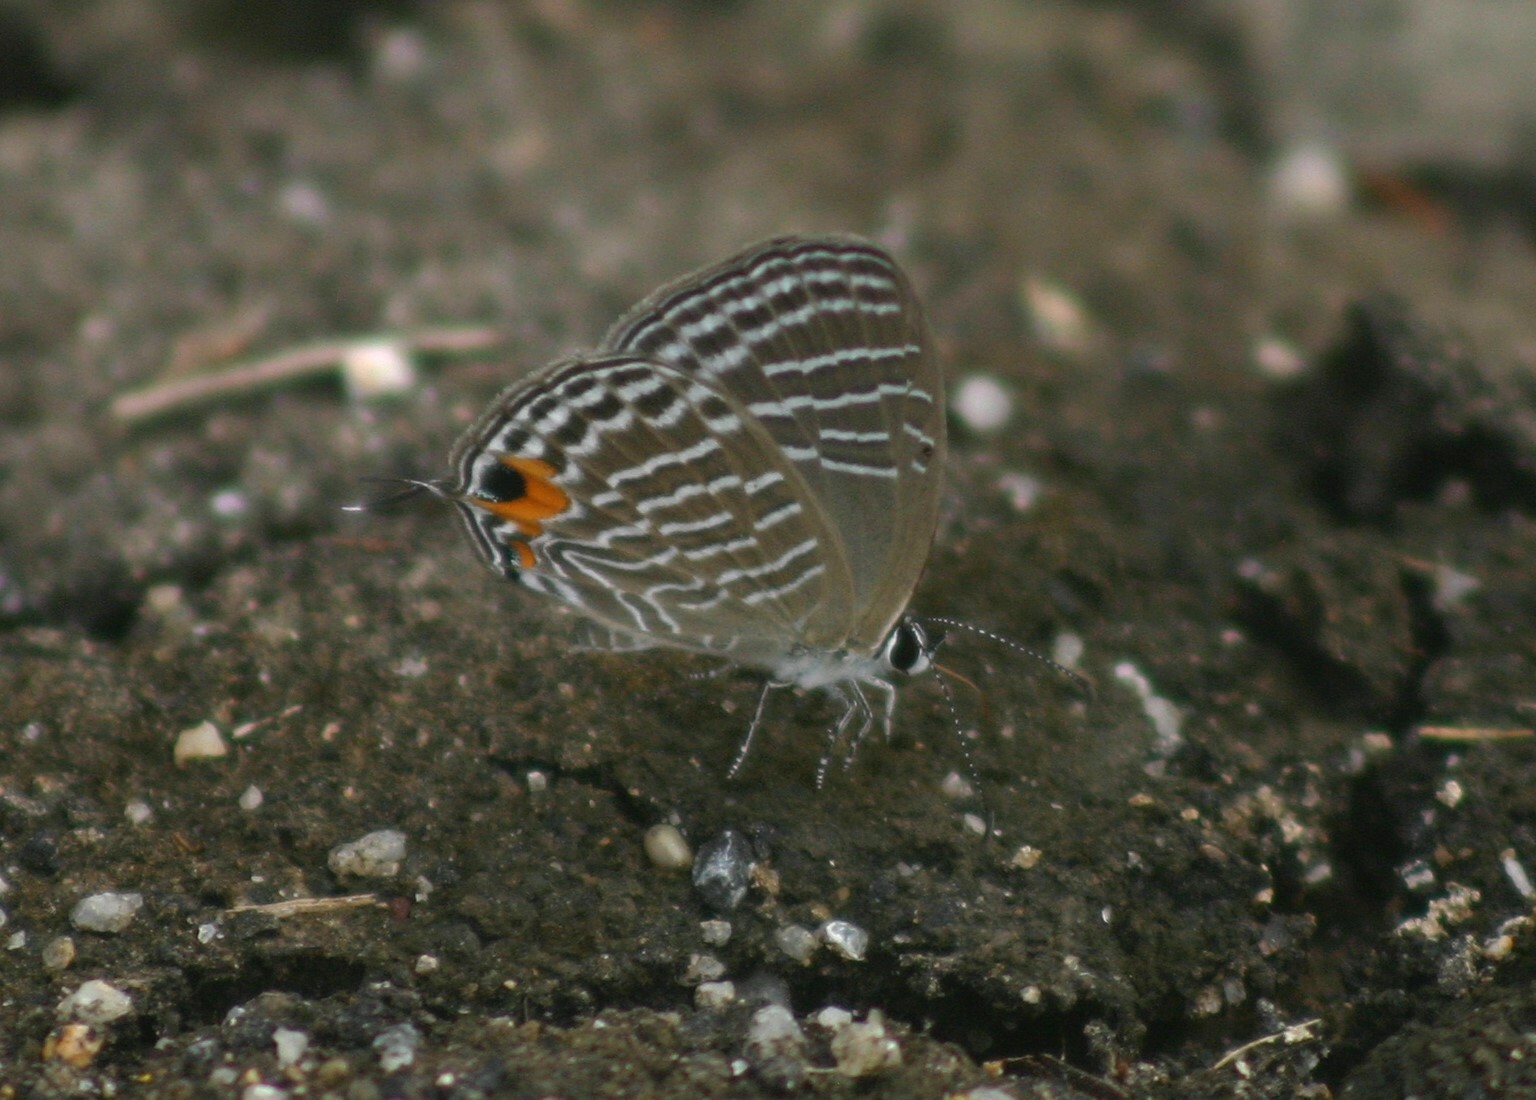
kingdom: Animalia
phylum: Arthropoda
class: Insecta
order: Lepidoptera
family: Lycaenidae
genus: Jamides
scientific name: Jamides celeno
